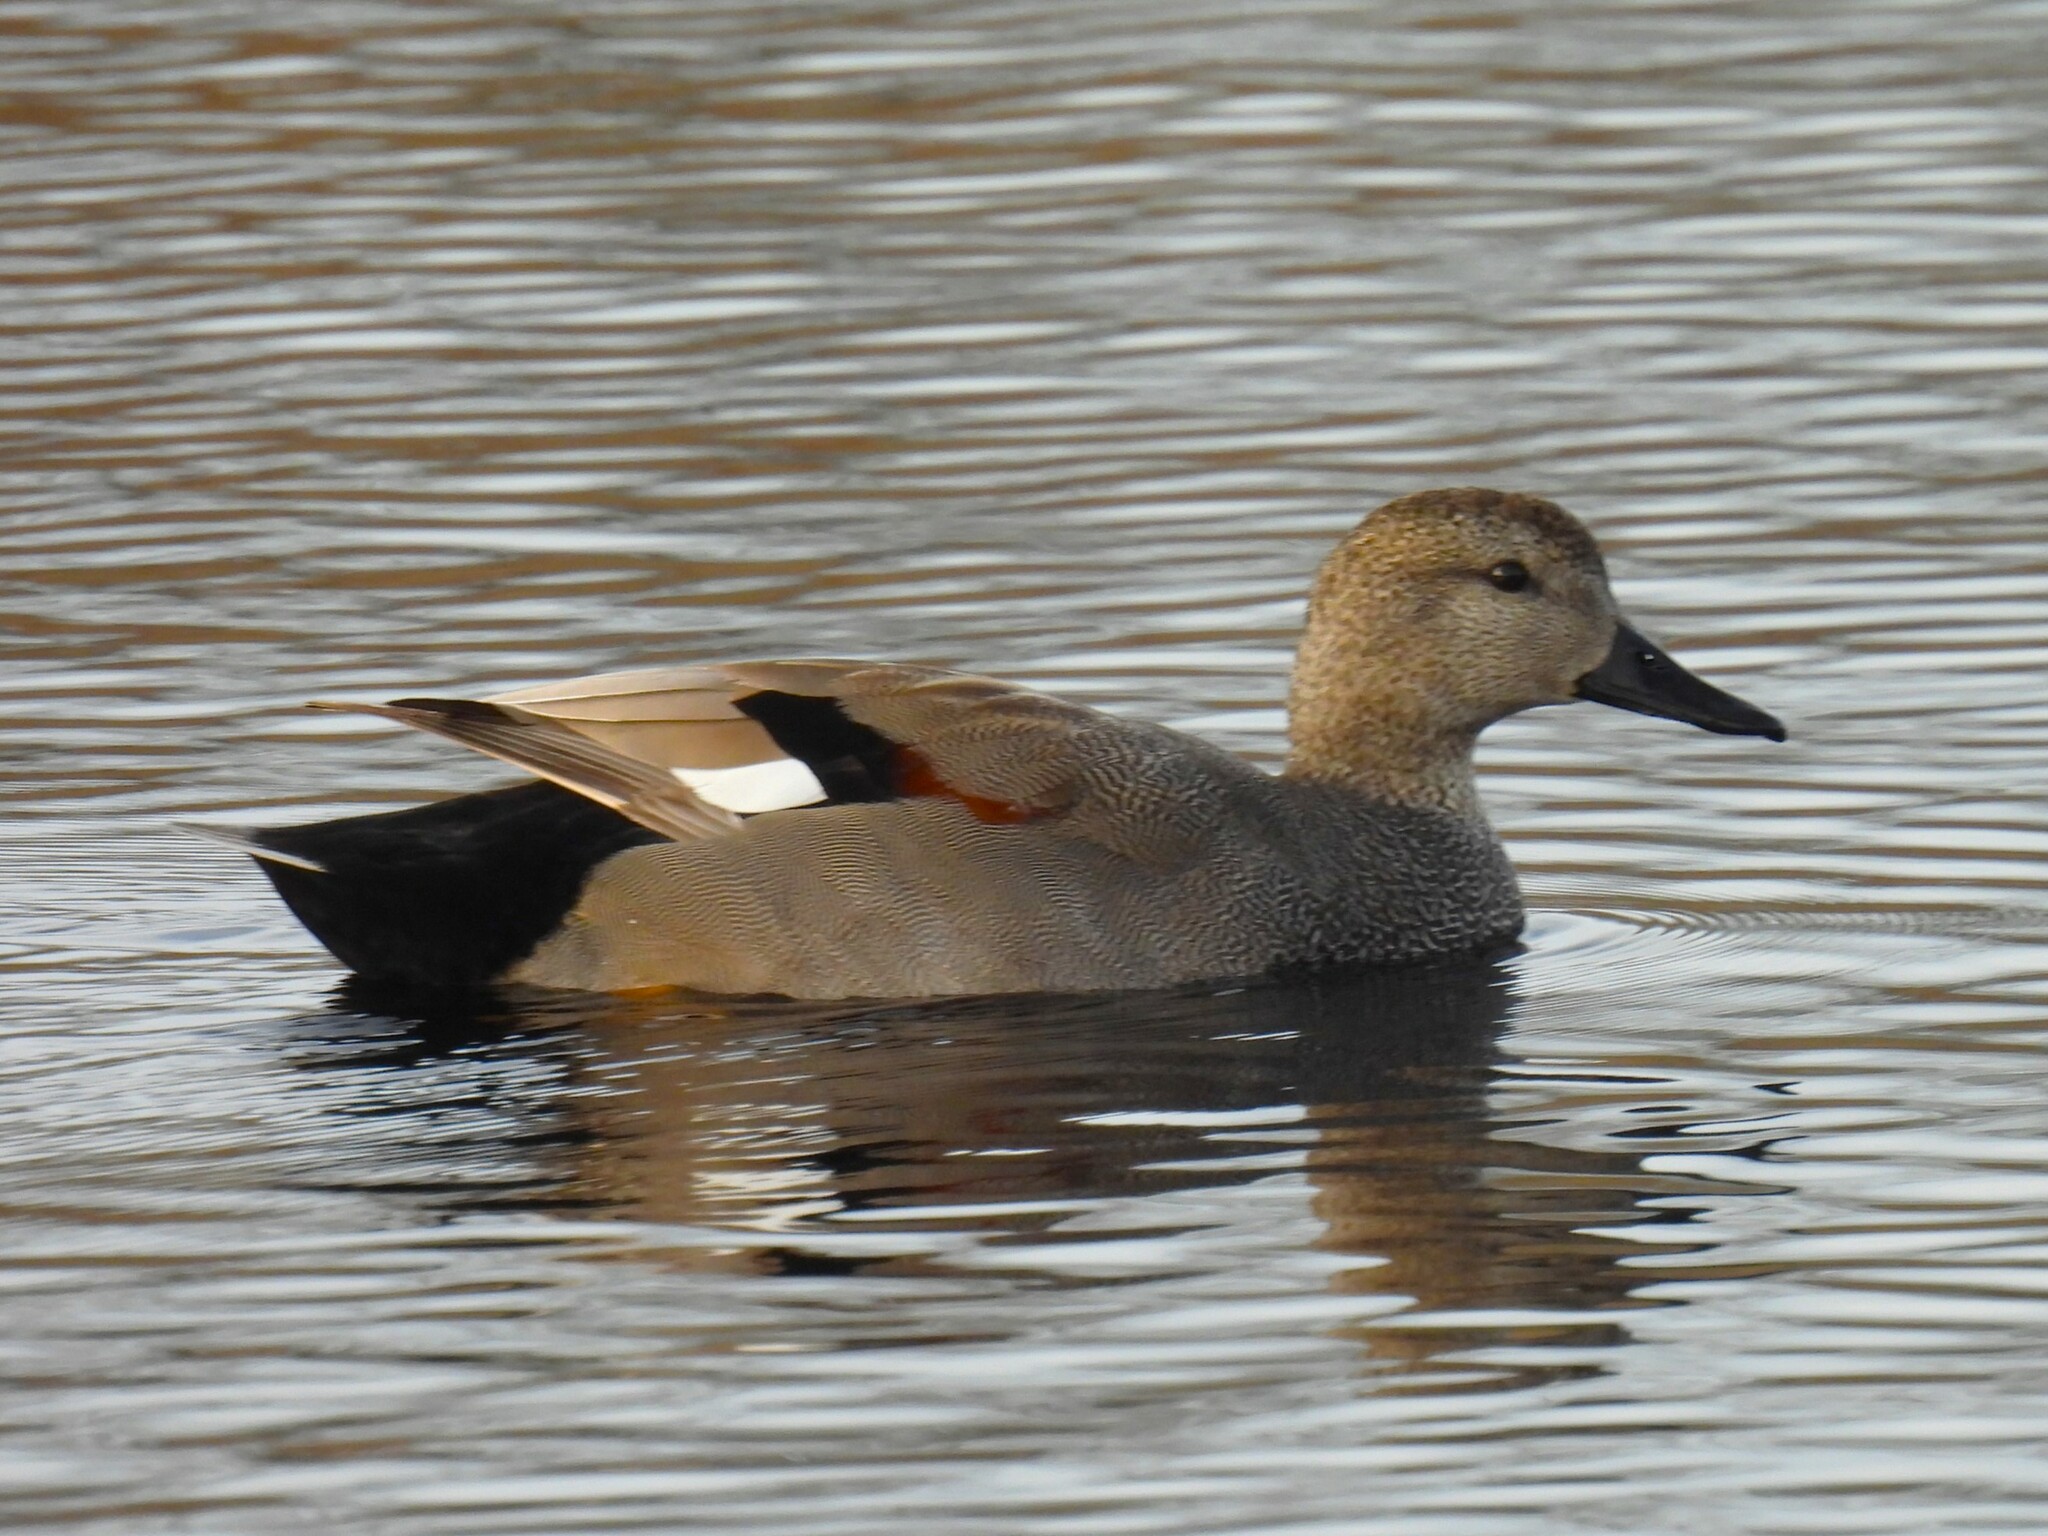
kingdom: Animalia
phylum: Chordata
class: Aves
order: Anseriformes
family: Anatidae
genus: Mareca
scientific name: Mareca strepera
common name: Gadwall
